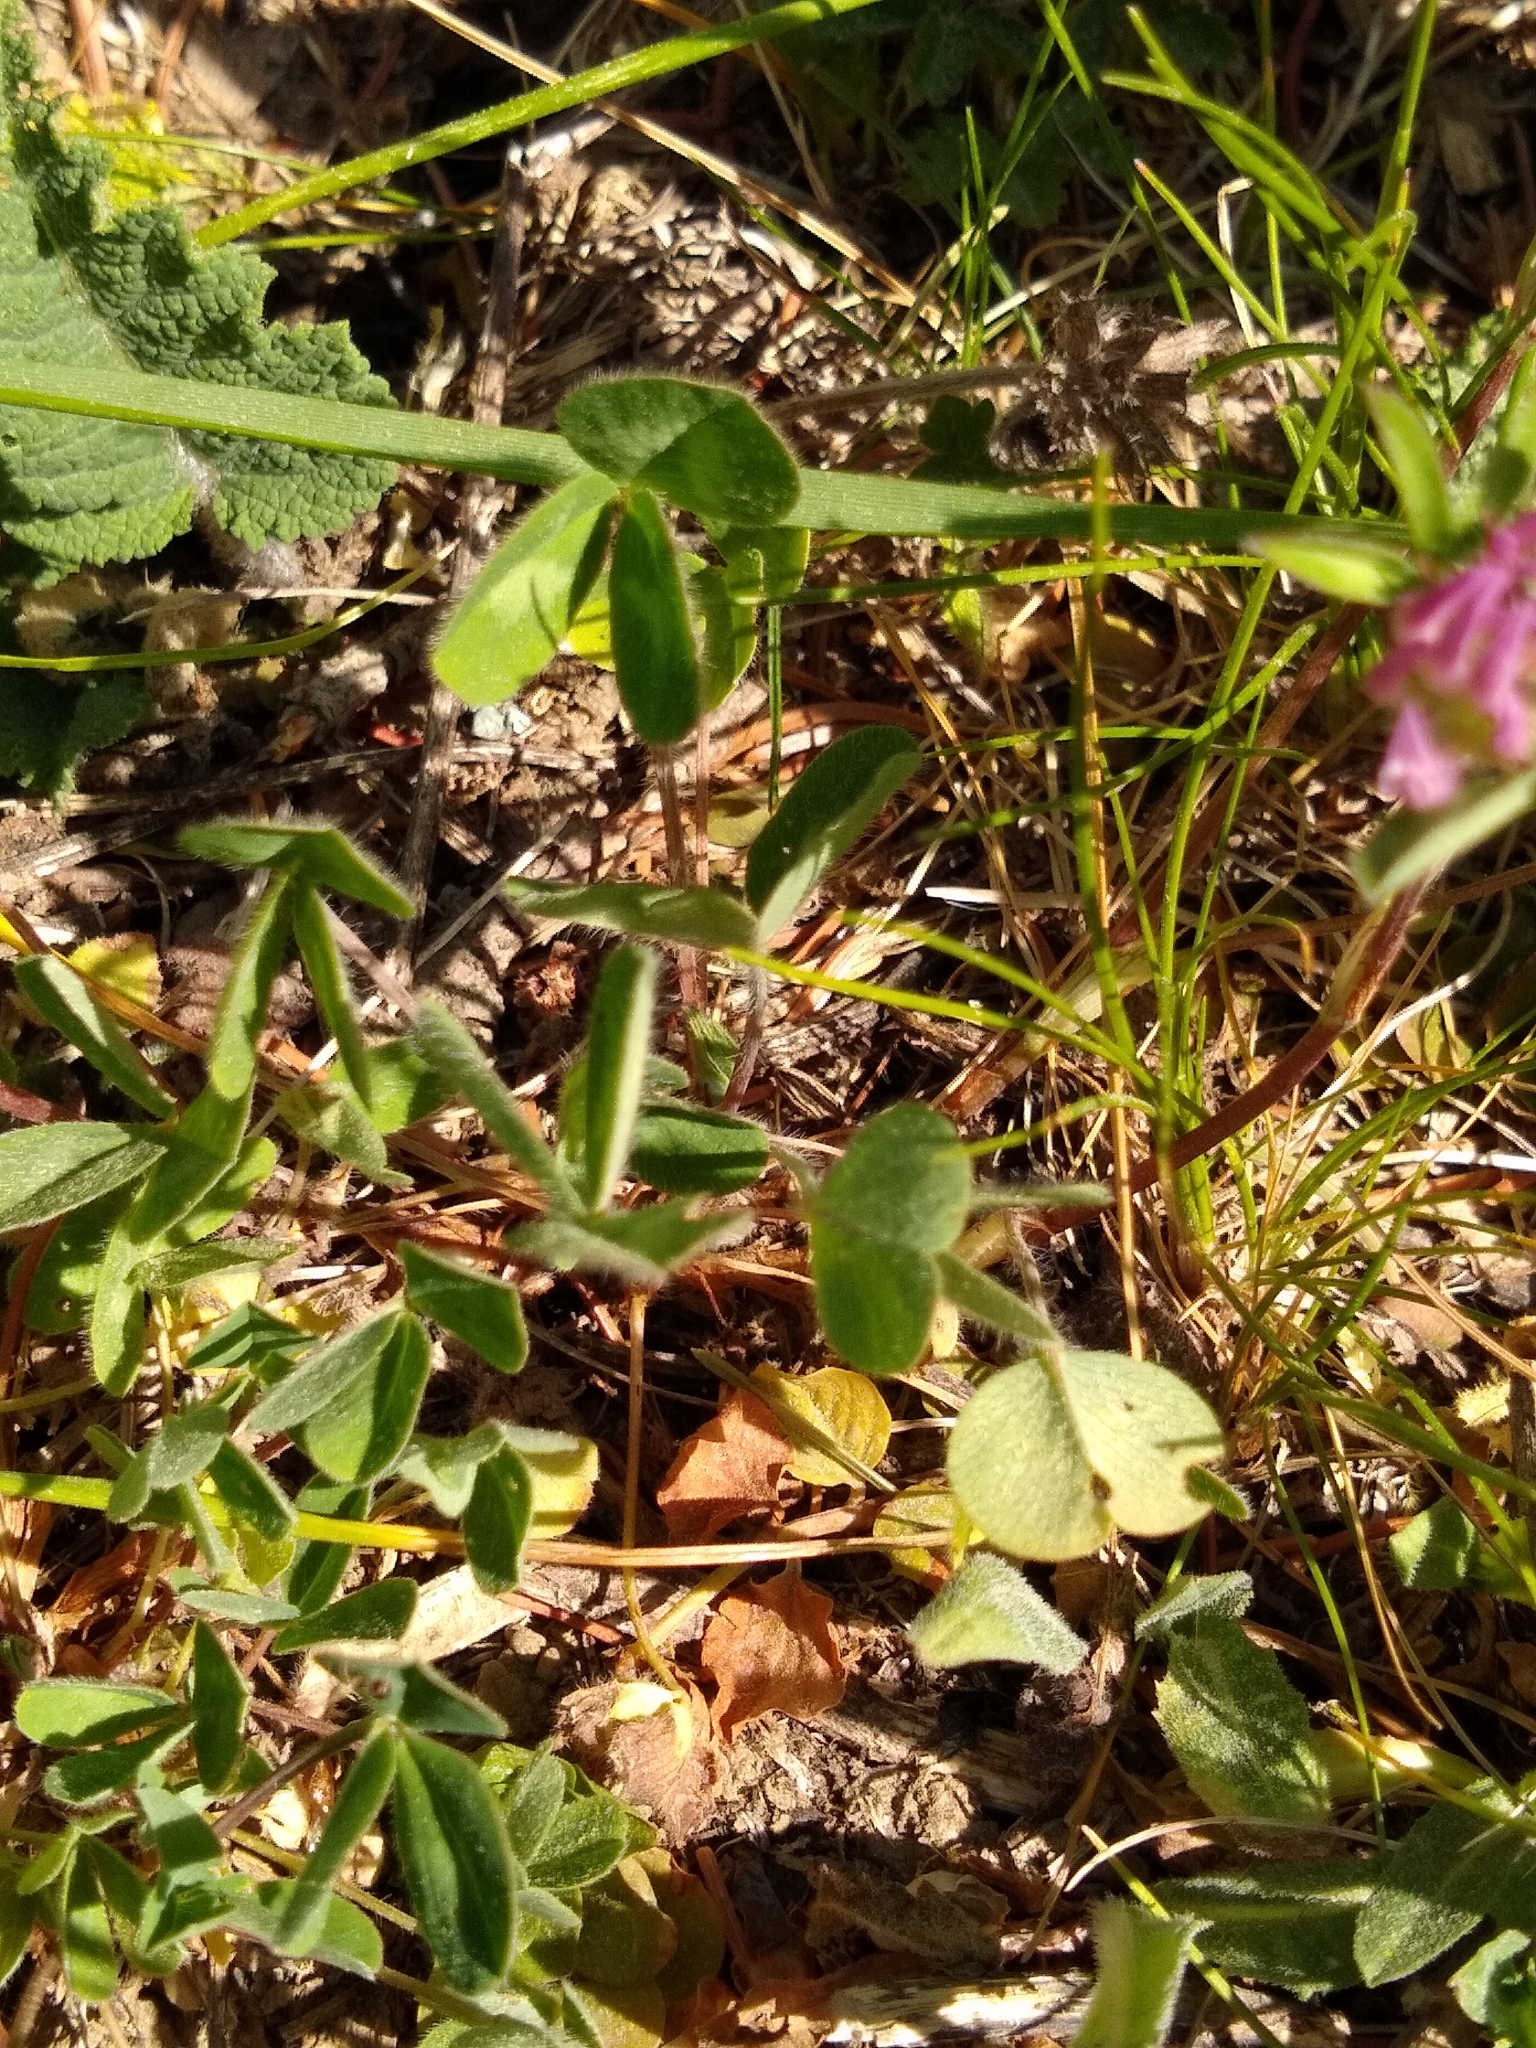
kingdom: Plantae
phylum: Tracheophyta
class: Magnoliopsida
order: Fabales
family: Fabaceae
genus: Trifolium
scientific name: Trifolium pratense
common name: Red clover
